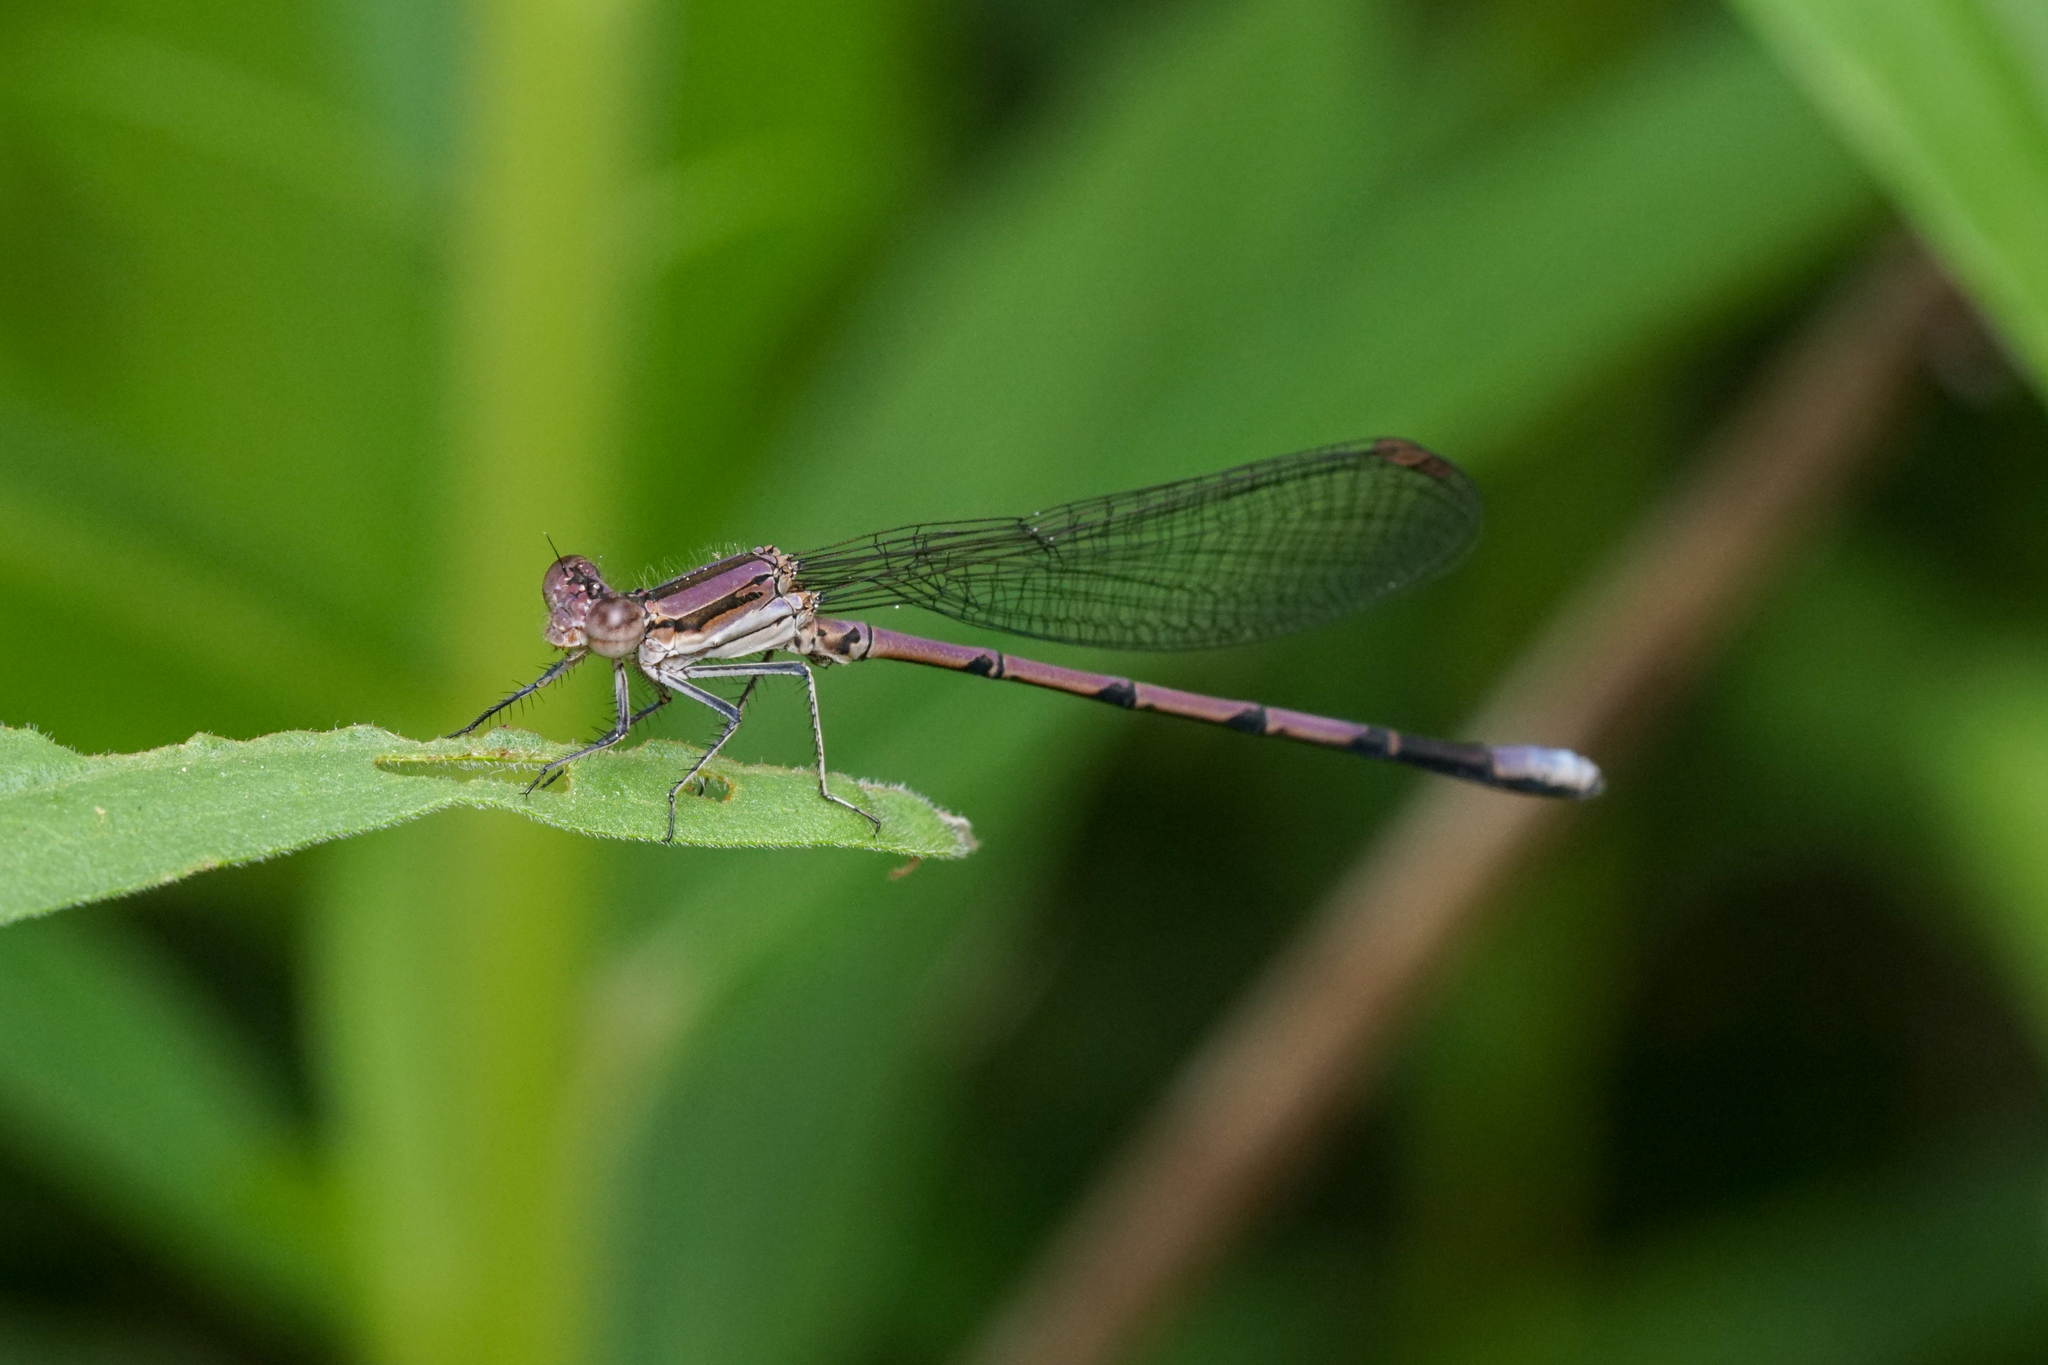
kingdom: Animalia
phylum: Arthropoda
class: Insecta
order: Odonata
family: Coenagrionidae
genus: Argia
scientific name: Argia fumipennis
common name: Variable dancer
